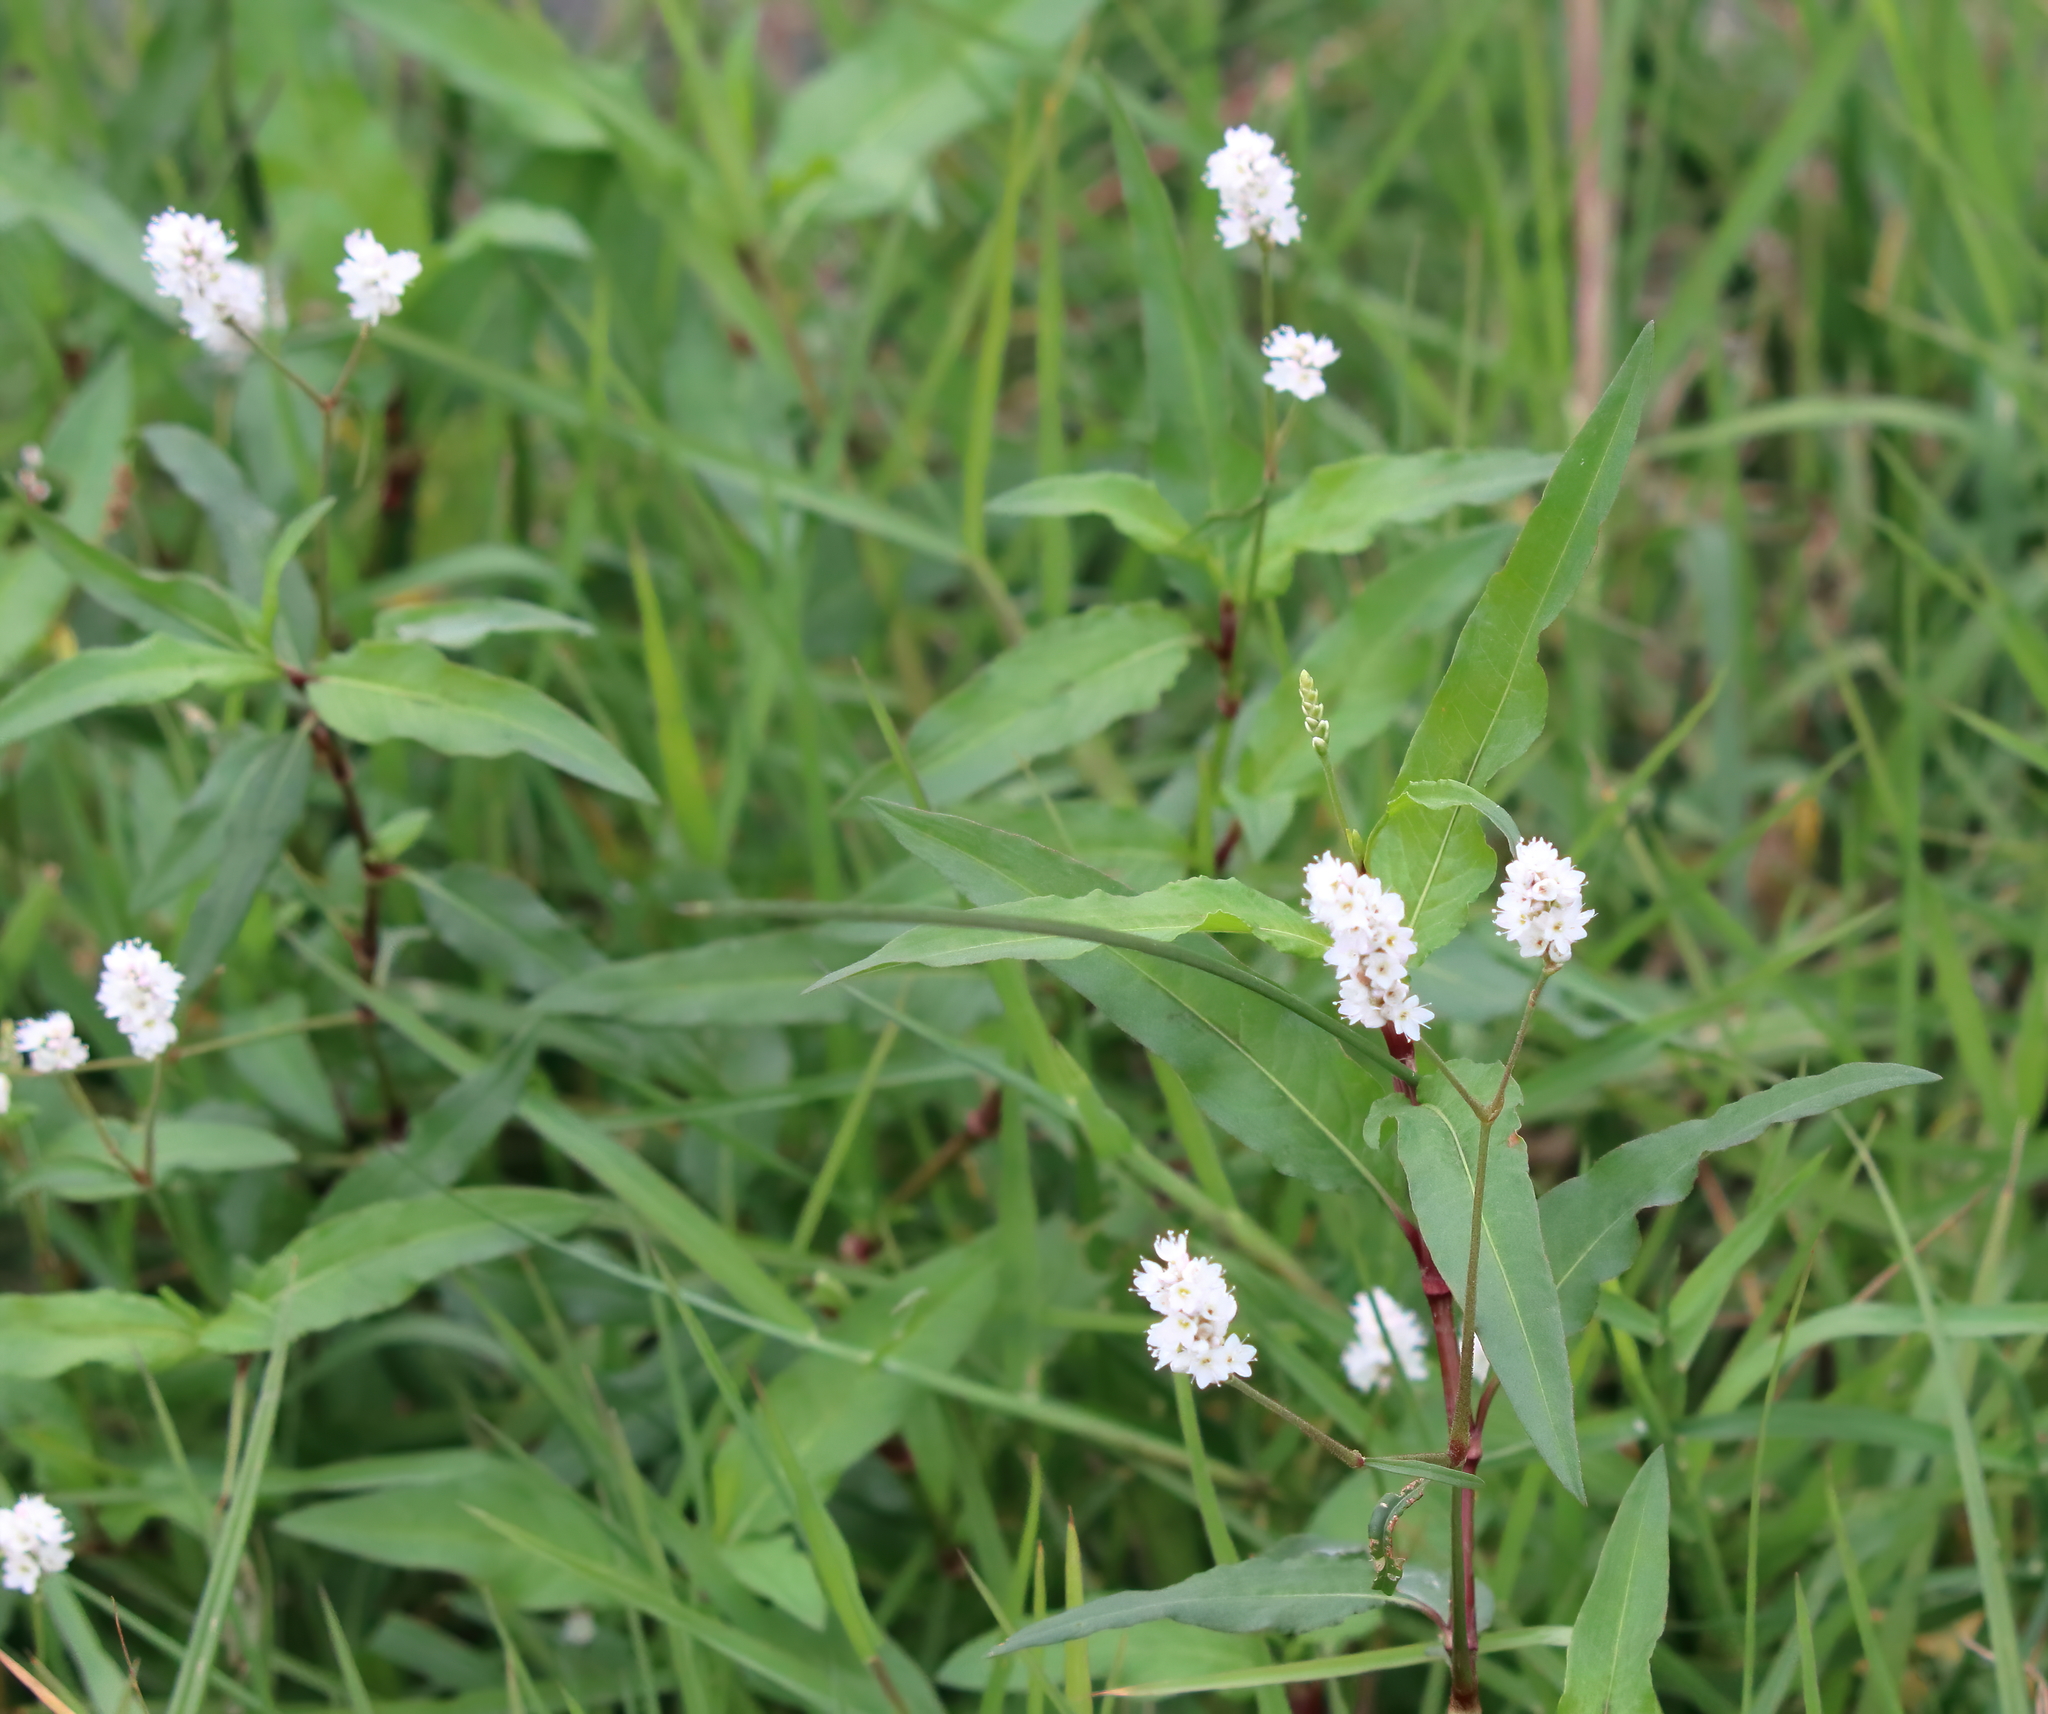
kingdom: Plantae
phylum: Tracheophyta
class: Magnoliopsida
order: Caryophyllales
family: Polygonaceae
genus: Persicaria
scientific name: Persicaria bicornis
